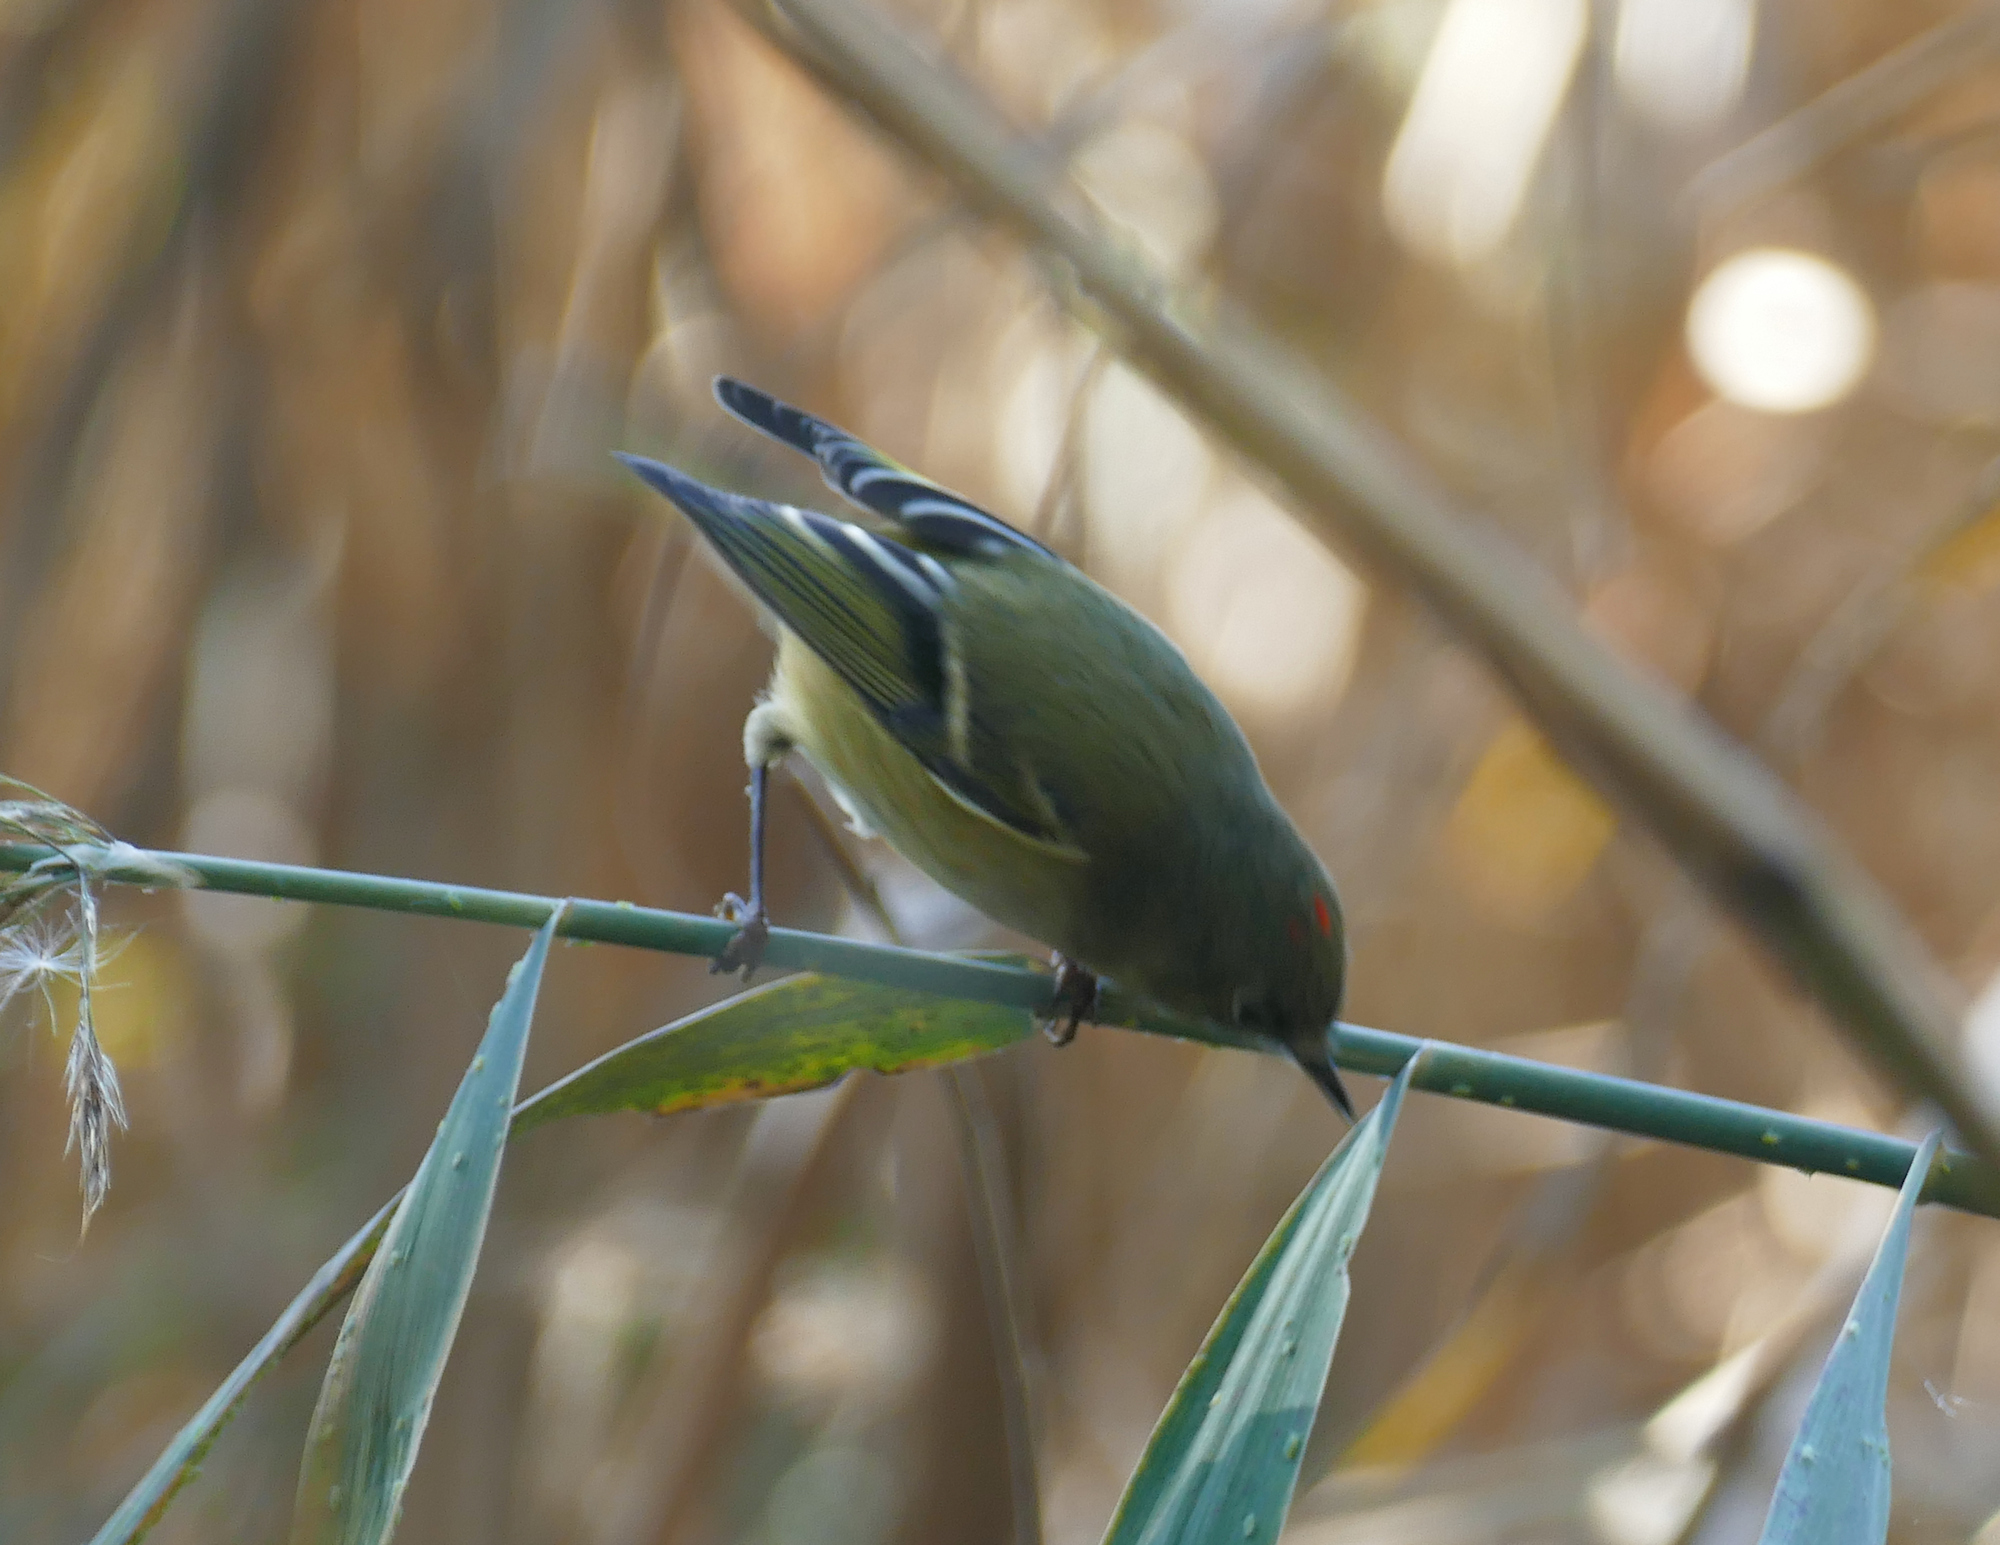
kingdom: Animalia
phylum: Chordata
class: Aves
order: Passeriformes
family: Regulidae
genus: Regulus
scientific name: Regulus calendula
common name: Ruby-crowned kinglet
